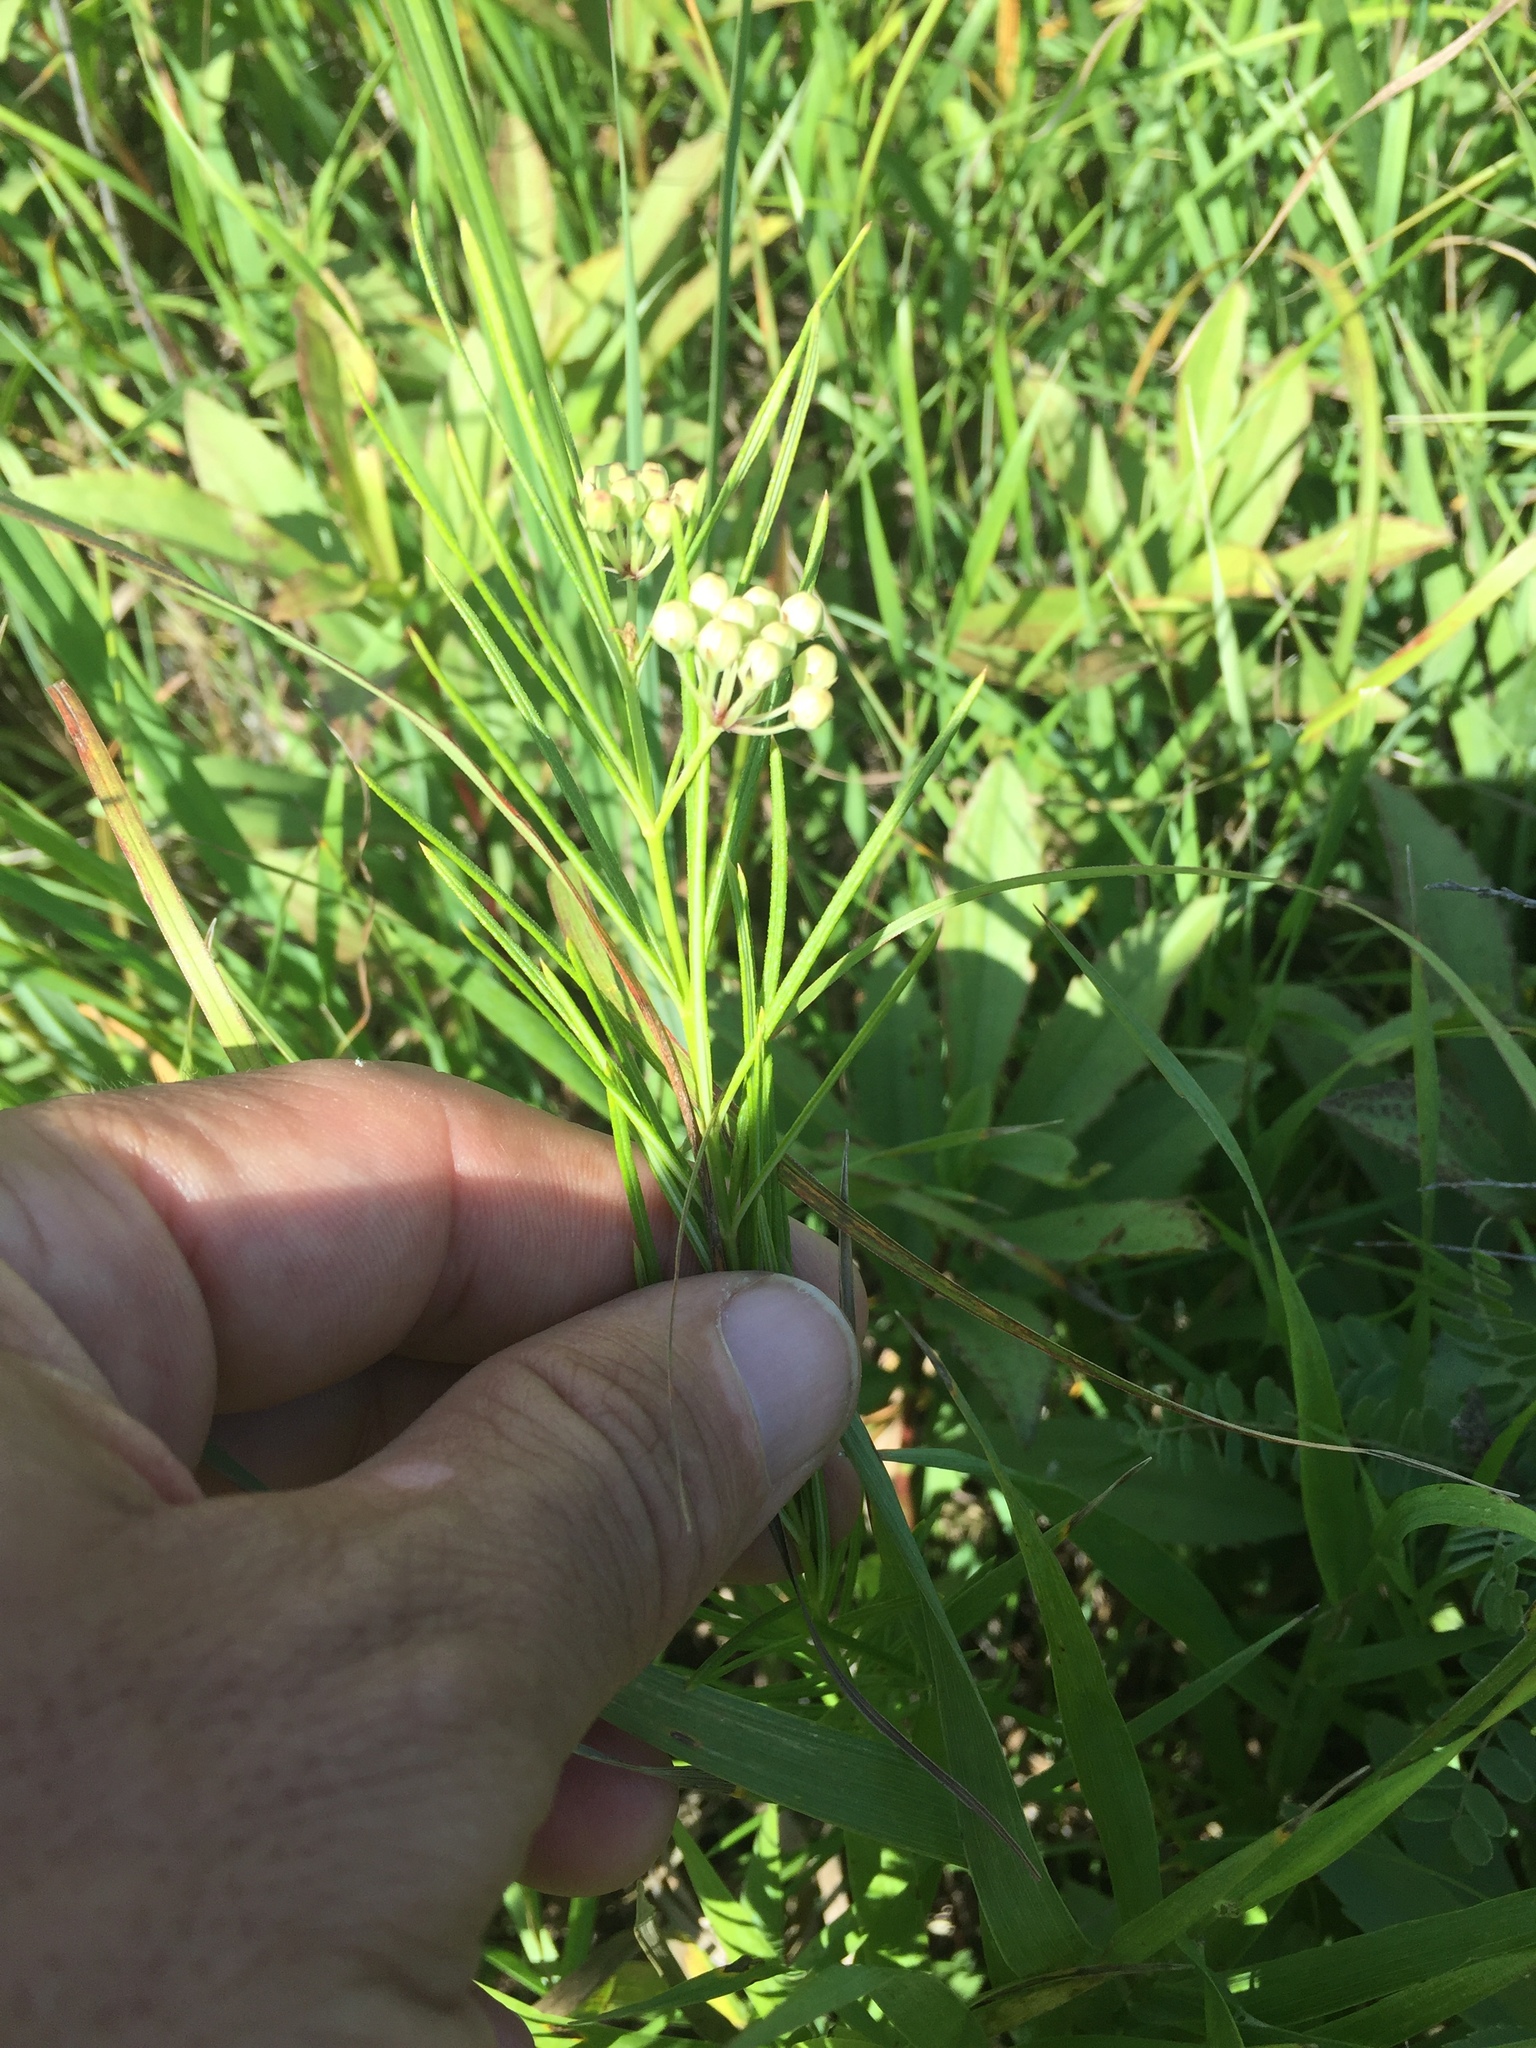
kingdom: Plantae
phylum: Tracheophyta
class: Magnoliopsida
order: Gentianales
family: Apocynaceae
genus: Asclepias
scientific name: Asclepias verticillata
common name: Eastern whorled milkweed
